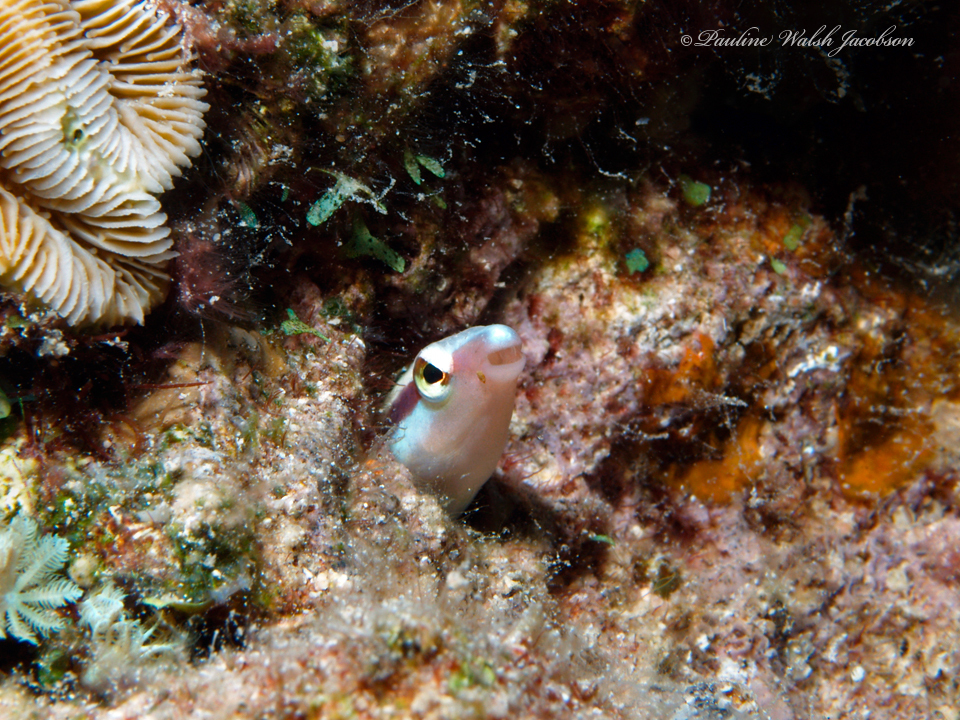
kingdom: Animalia
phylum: Chordata
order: Perciformes
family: Blenniidae
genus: Aspidontus
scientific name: Aspidontus dussumieri
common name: Lance blenny
